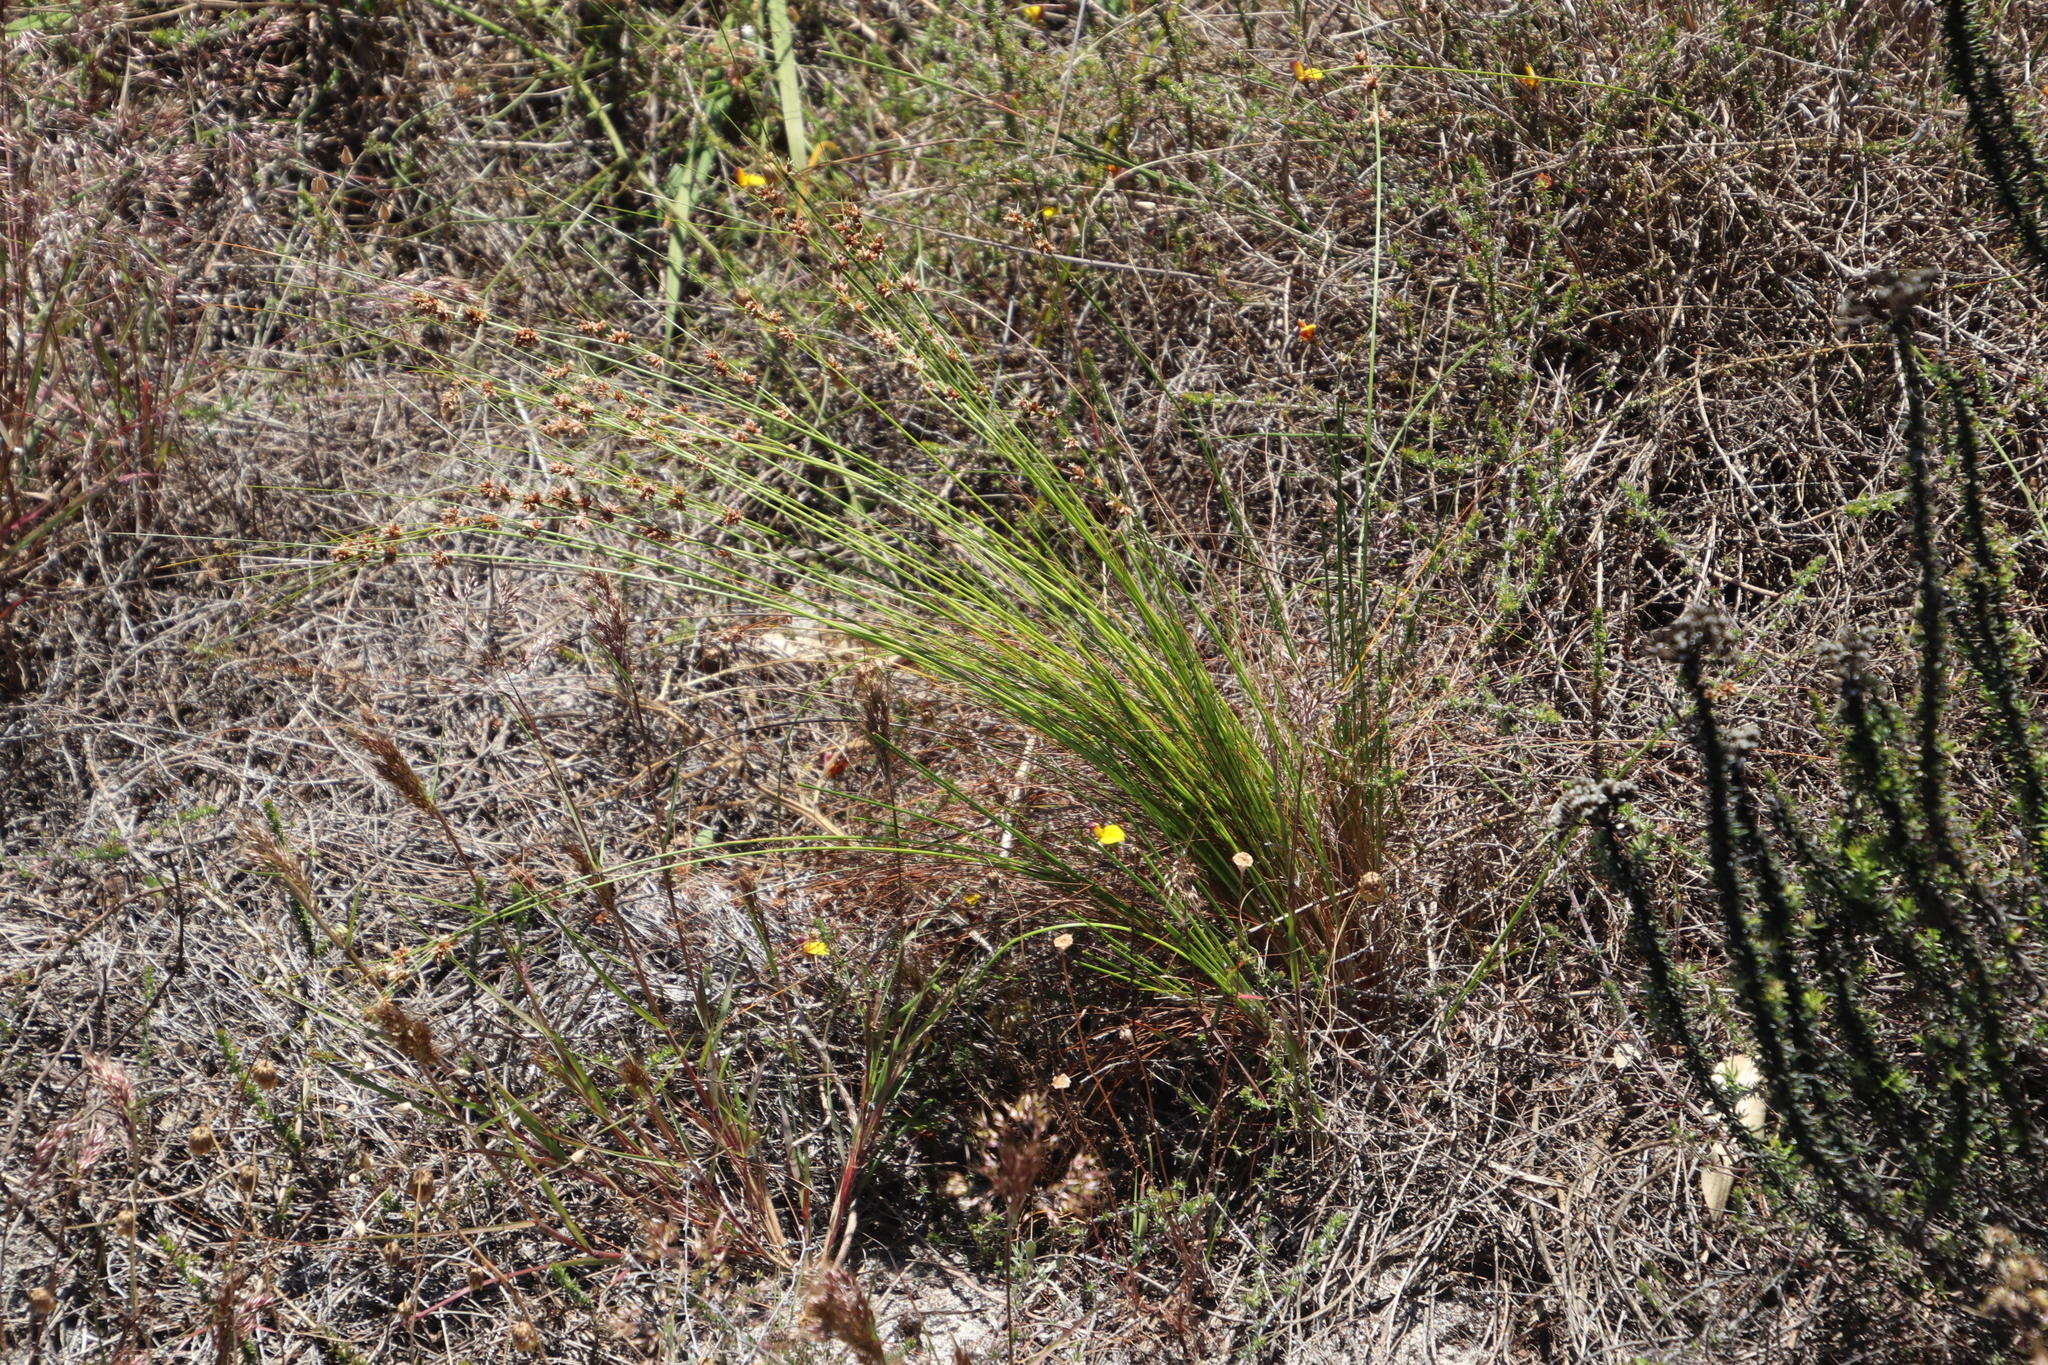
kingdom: Plantae
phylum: Tracheophyta
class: Liliopsida
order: Poales
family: Cyperaceae
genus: Ficinia
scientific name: Ficinia bulbosa
